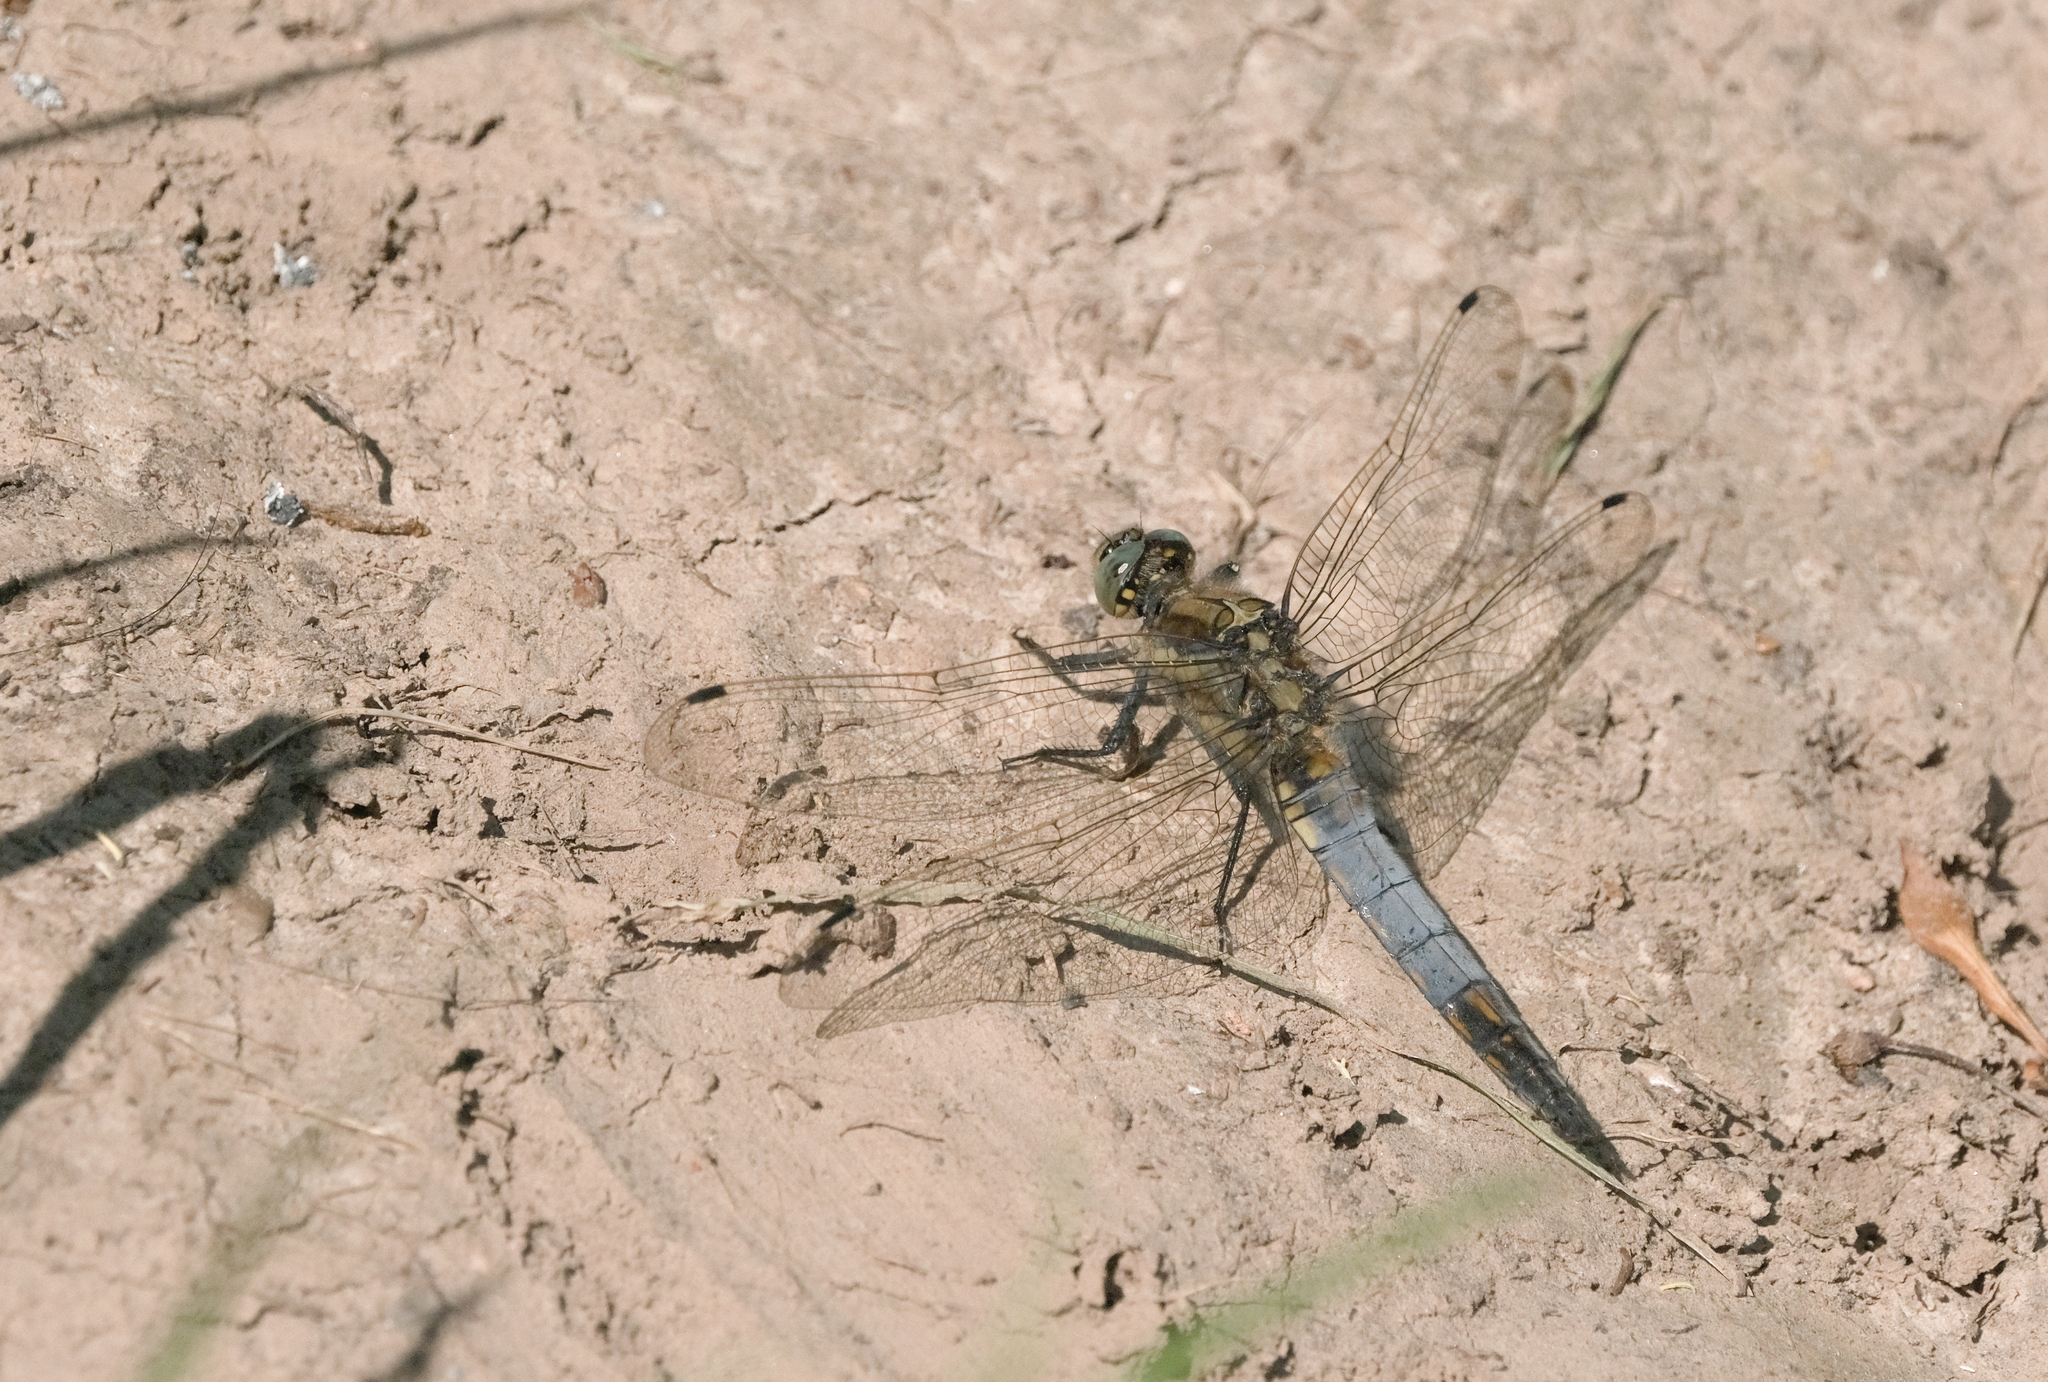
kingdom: Animalia
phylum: Arthropoda
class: Insecta
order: Odonata
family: Libellulidae
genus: Orthetrum
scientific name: Orthetrum cancellatum
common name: Black-tailed skimmer
